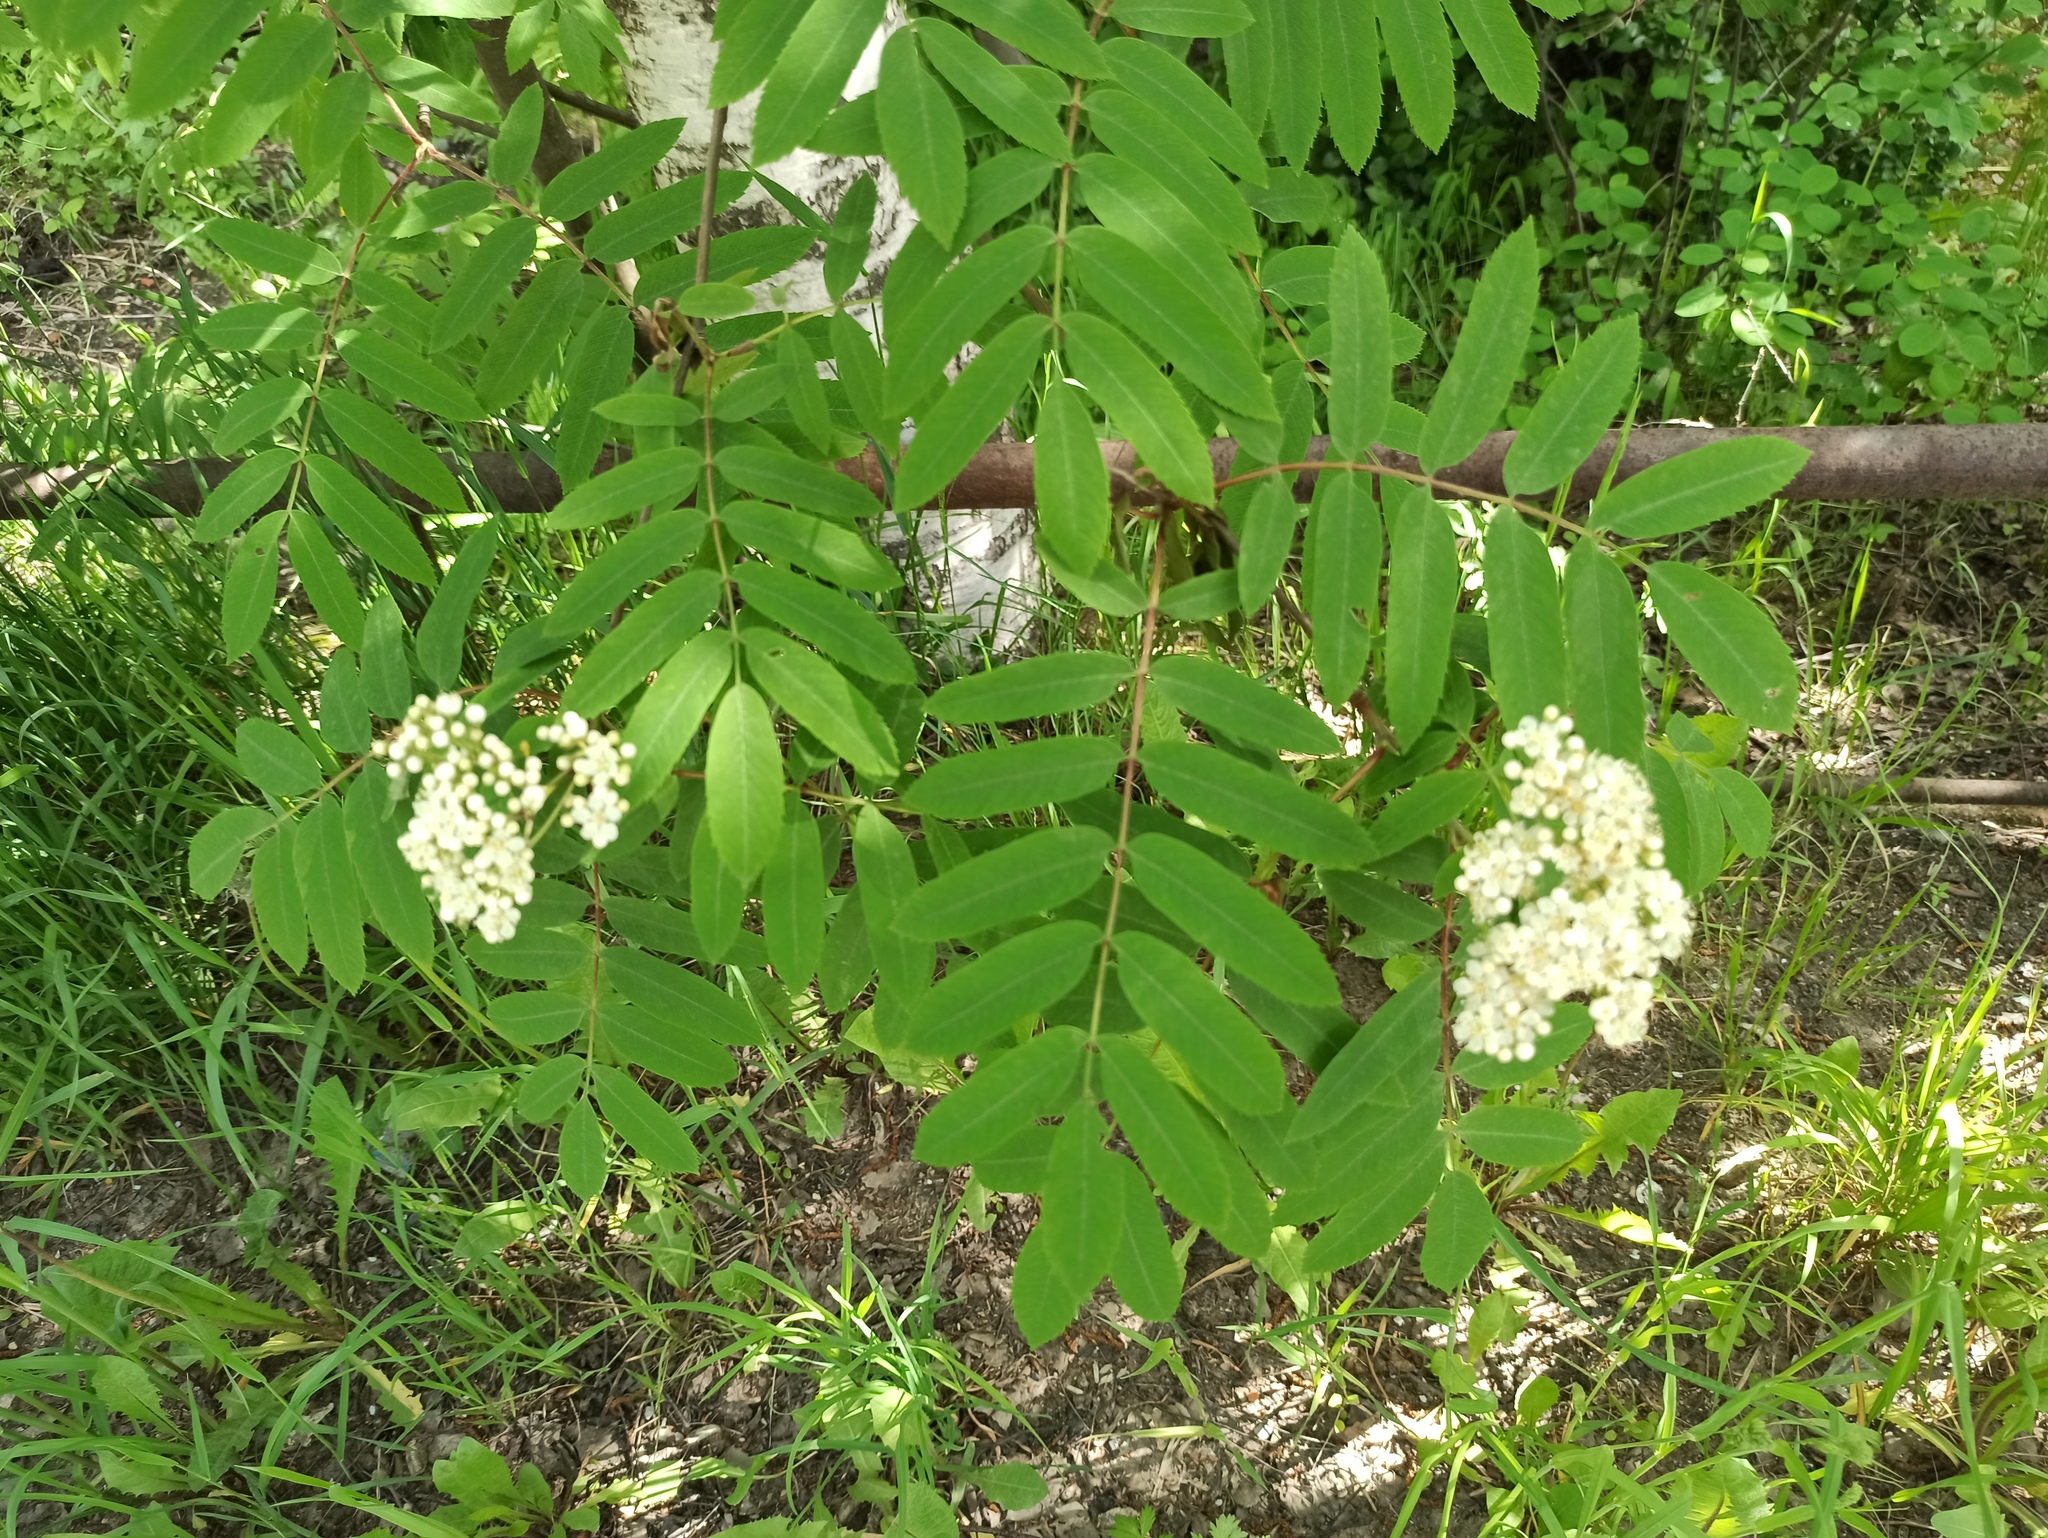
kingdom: Plantae
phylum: Tracheophyta
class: Magnoliopsida
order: Rosales
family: Rosaceae
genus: Sorbus
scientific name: Sorbus aucuparia
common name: Rowan
